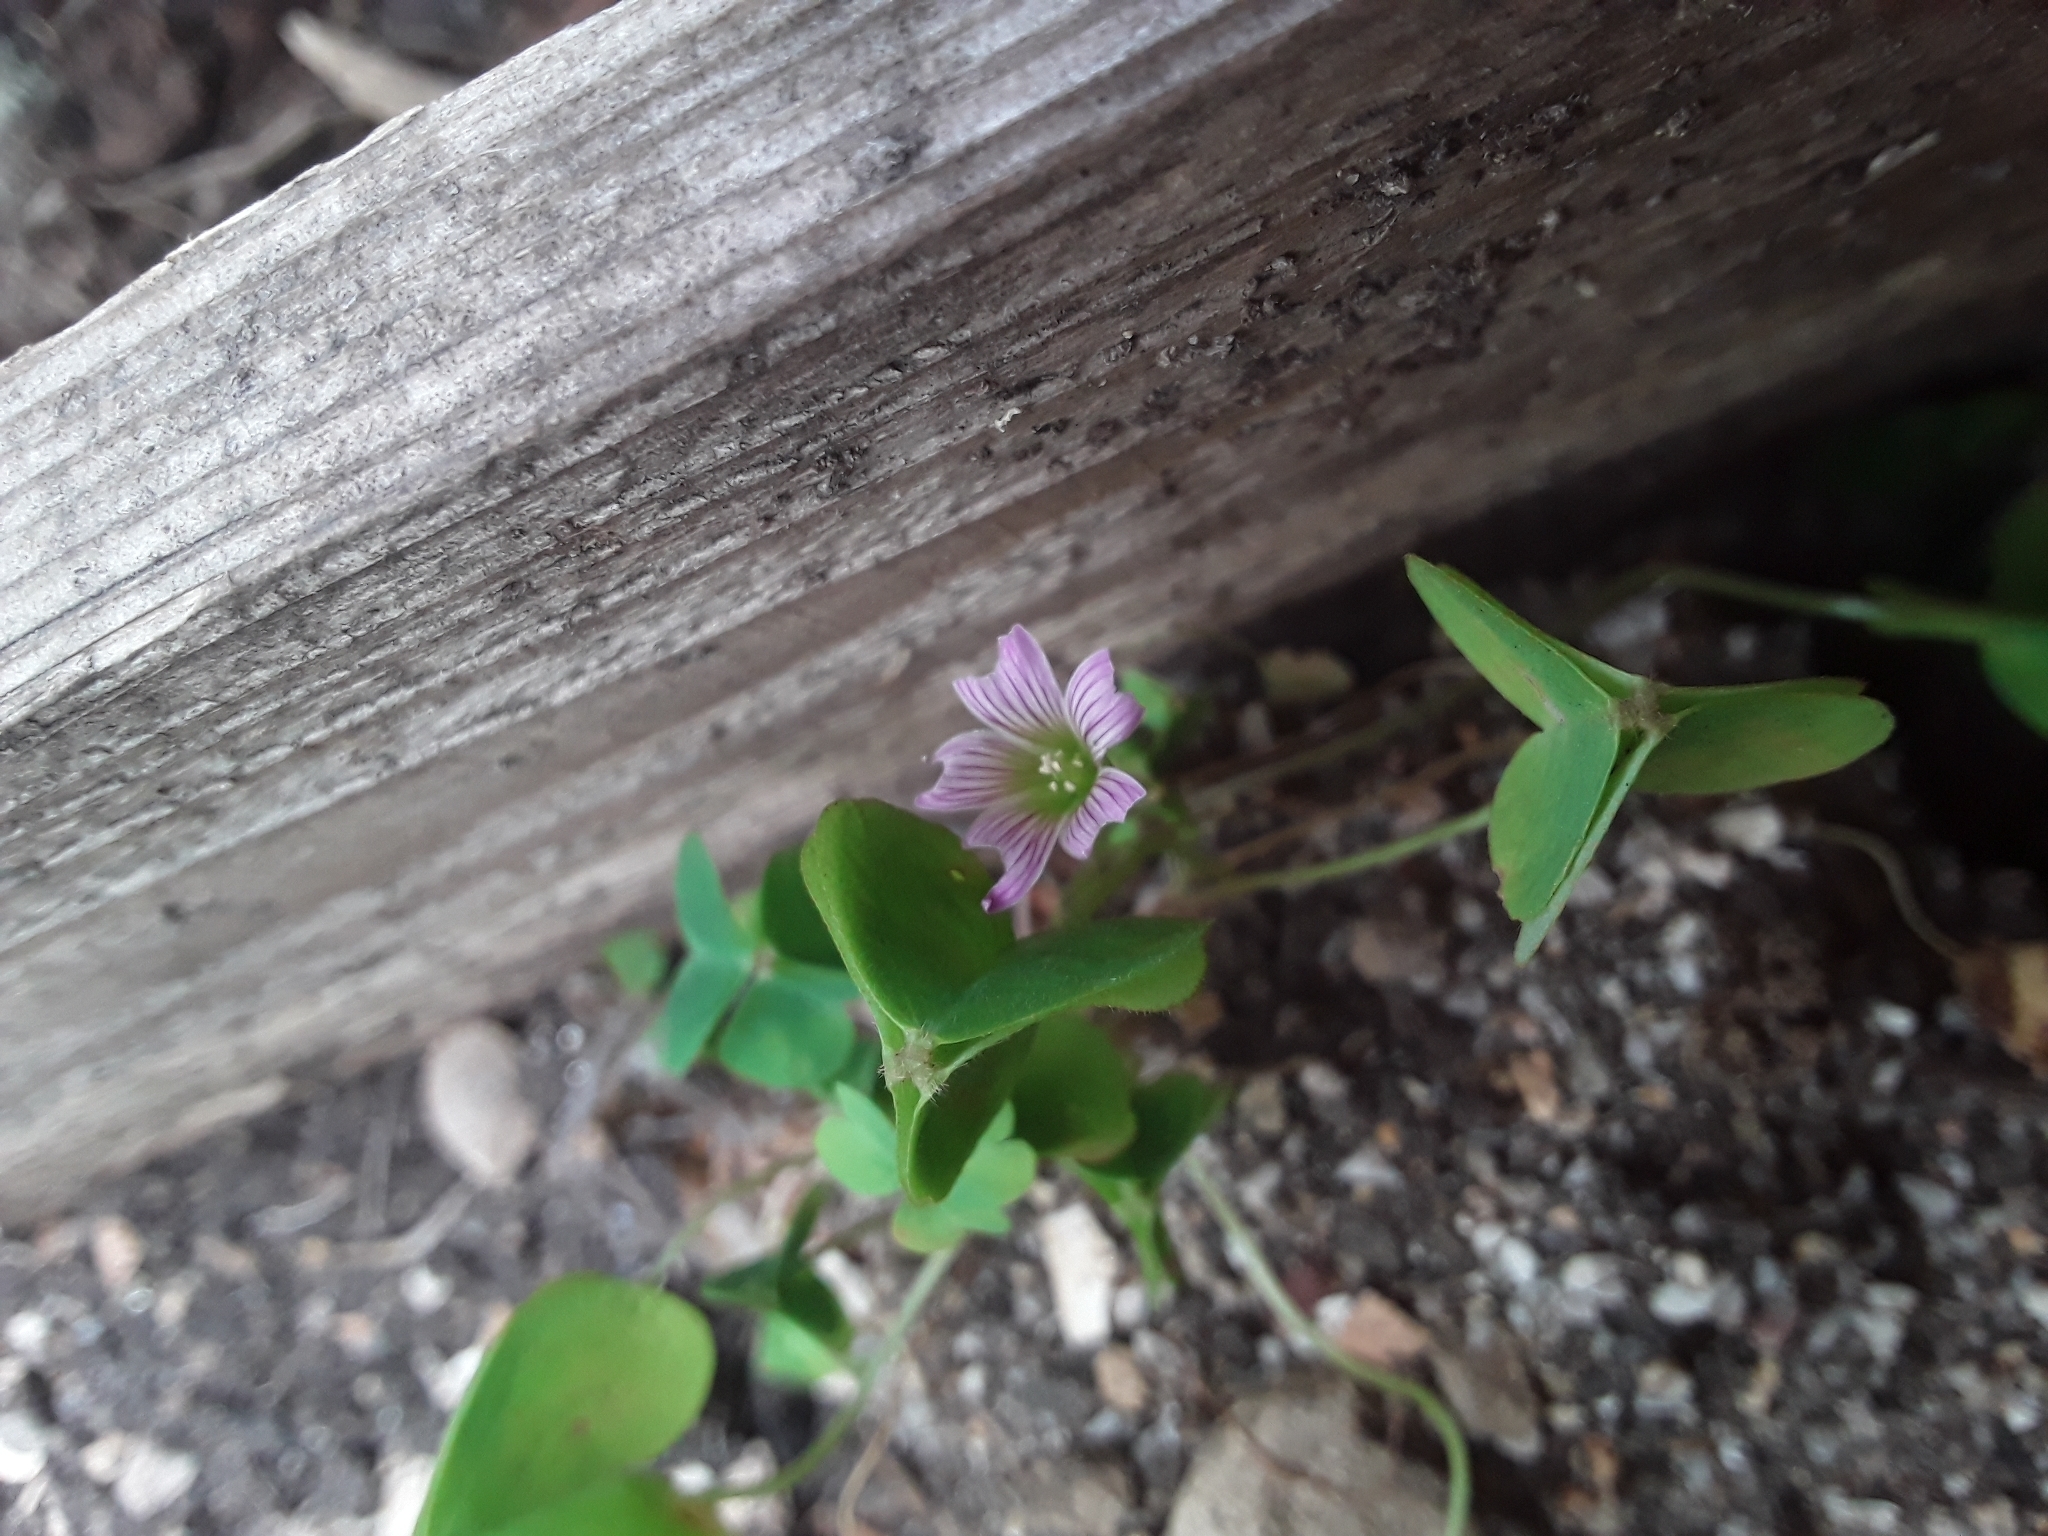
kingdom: Plantae
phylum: Tracheophyta
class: Magnoliopsida
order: Oxalidales
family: Oxalidaceae
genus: Oxalis
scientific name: Oxalis debilis
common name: Large-flowered pink-sorrel
